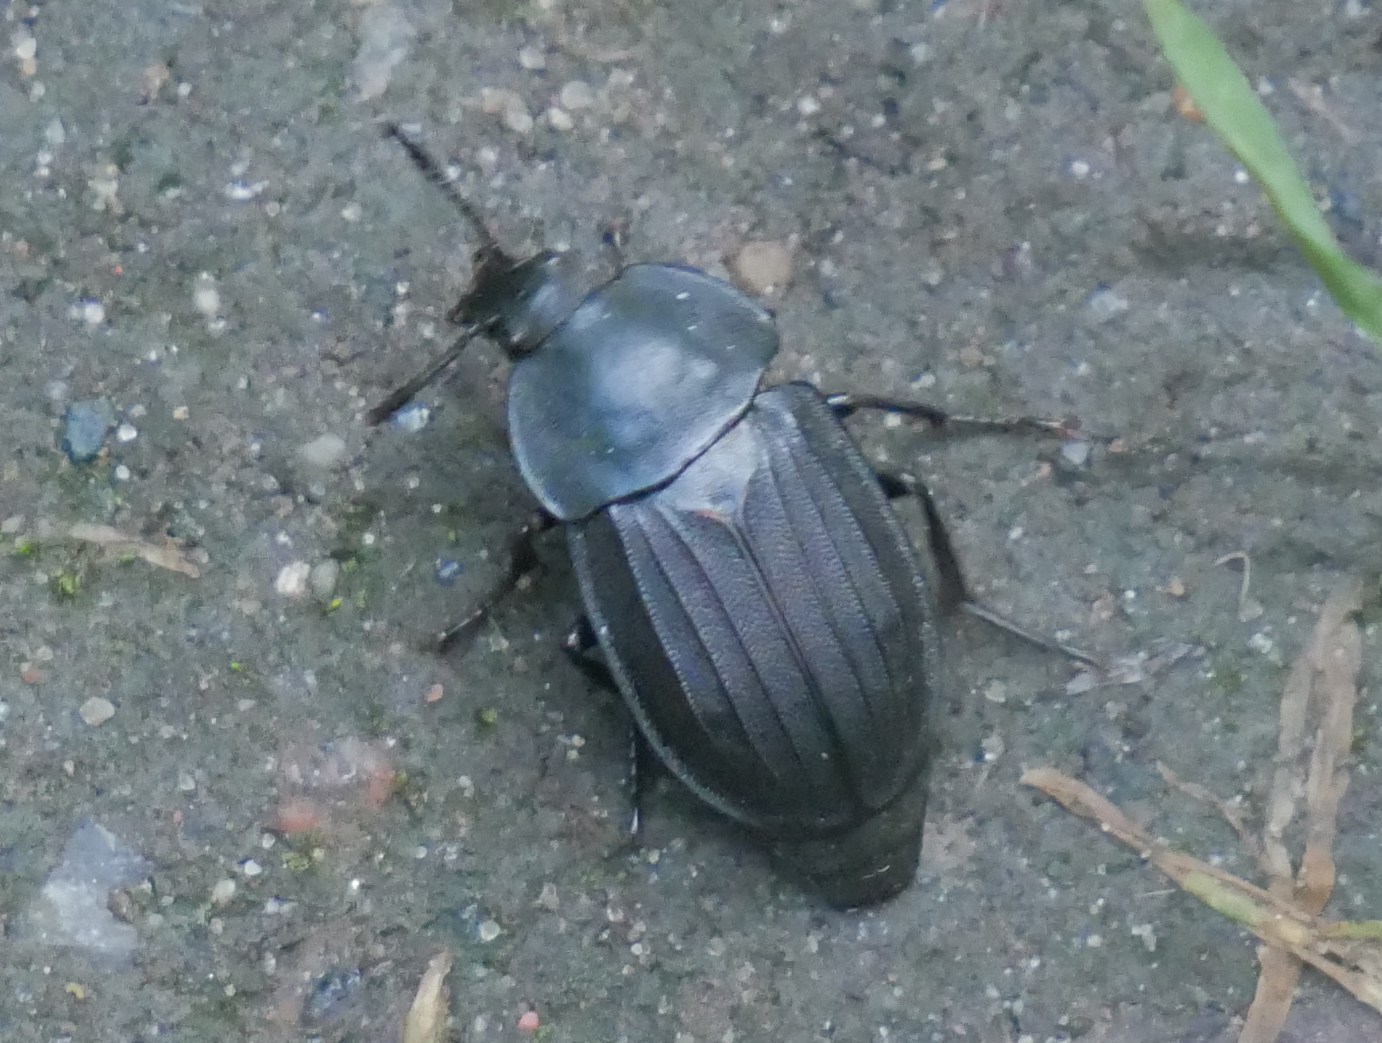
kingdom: Animalia
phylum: Arthropoda
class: Insecta
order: Coleoptera
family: Staphylinidae
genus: Silpha
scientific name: Silpha tristis
